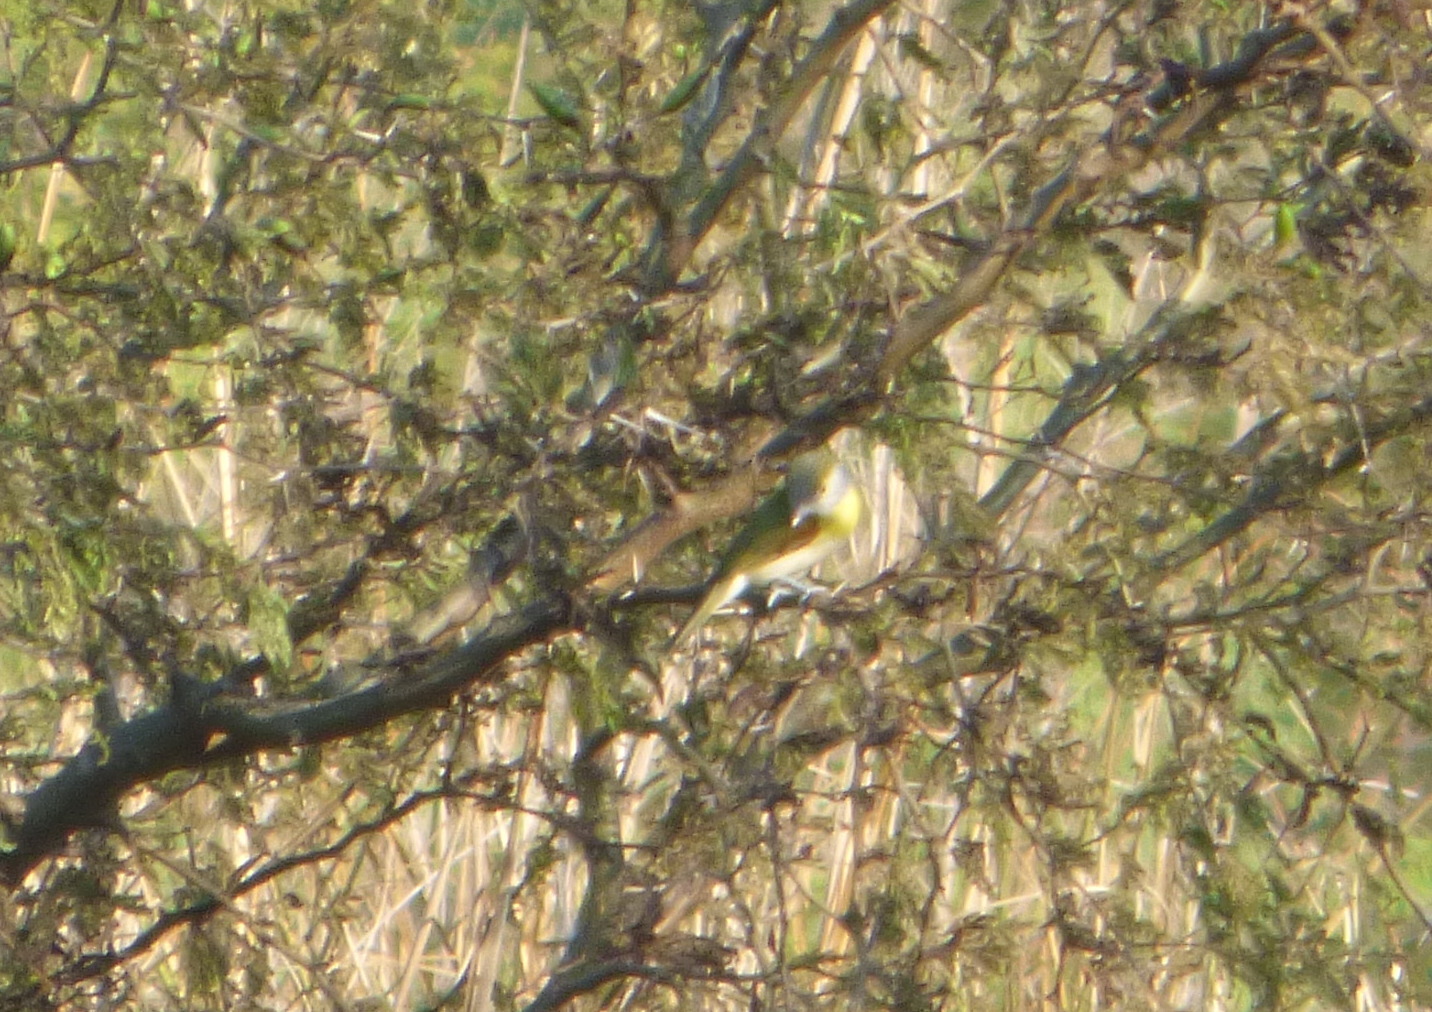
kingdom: Animalia
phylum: Chordata
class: Aves
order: Passeriformes
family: Cotingidae
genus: Pachyramphus
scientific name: Pachyramphus viridis
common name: Green-backed becard
